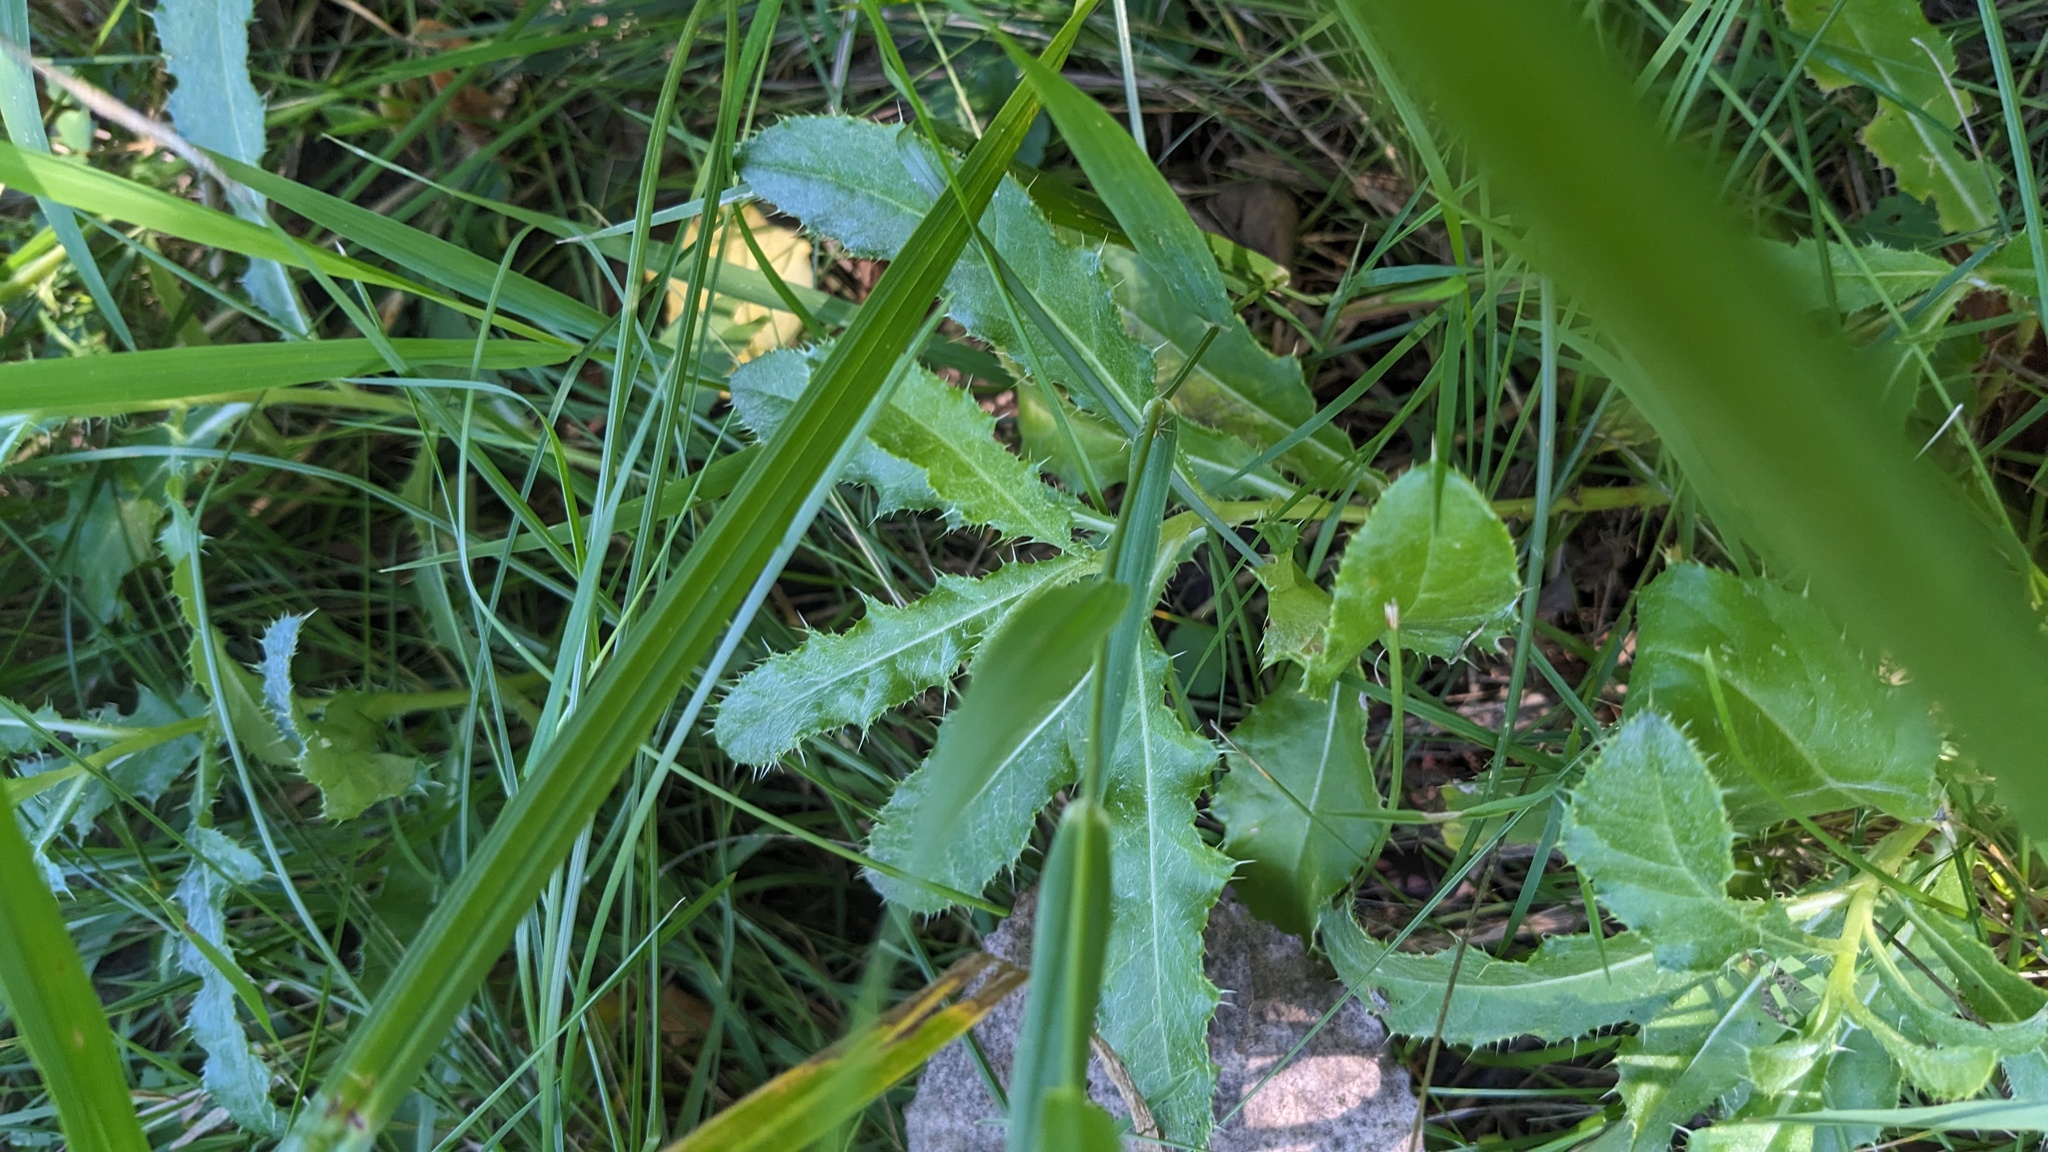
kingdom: Plantae
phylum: Tracheophyta
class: Magnoliopsida
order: Asterales
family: Asteraceae
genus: Cirsium
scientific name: Cirsium arvense
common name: Creeping thistle
